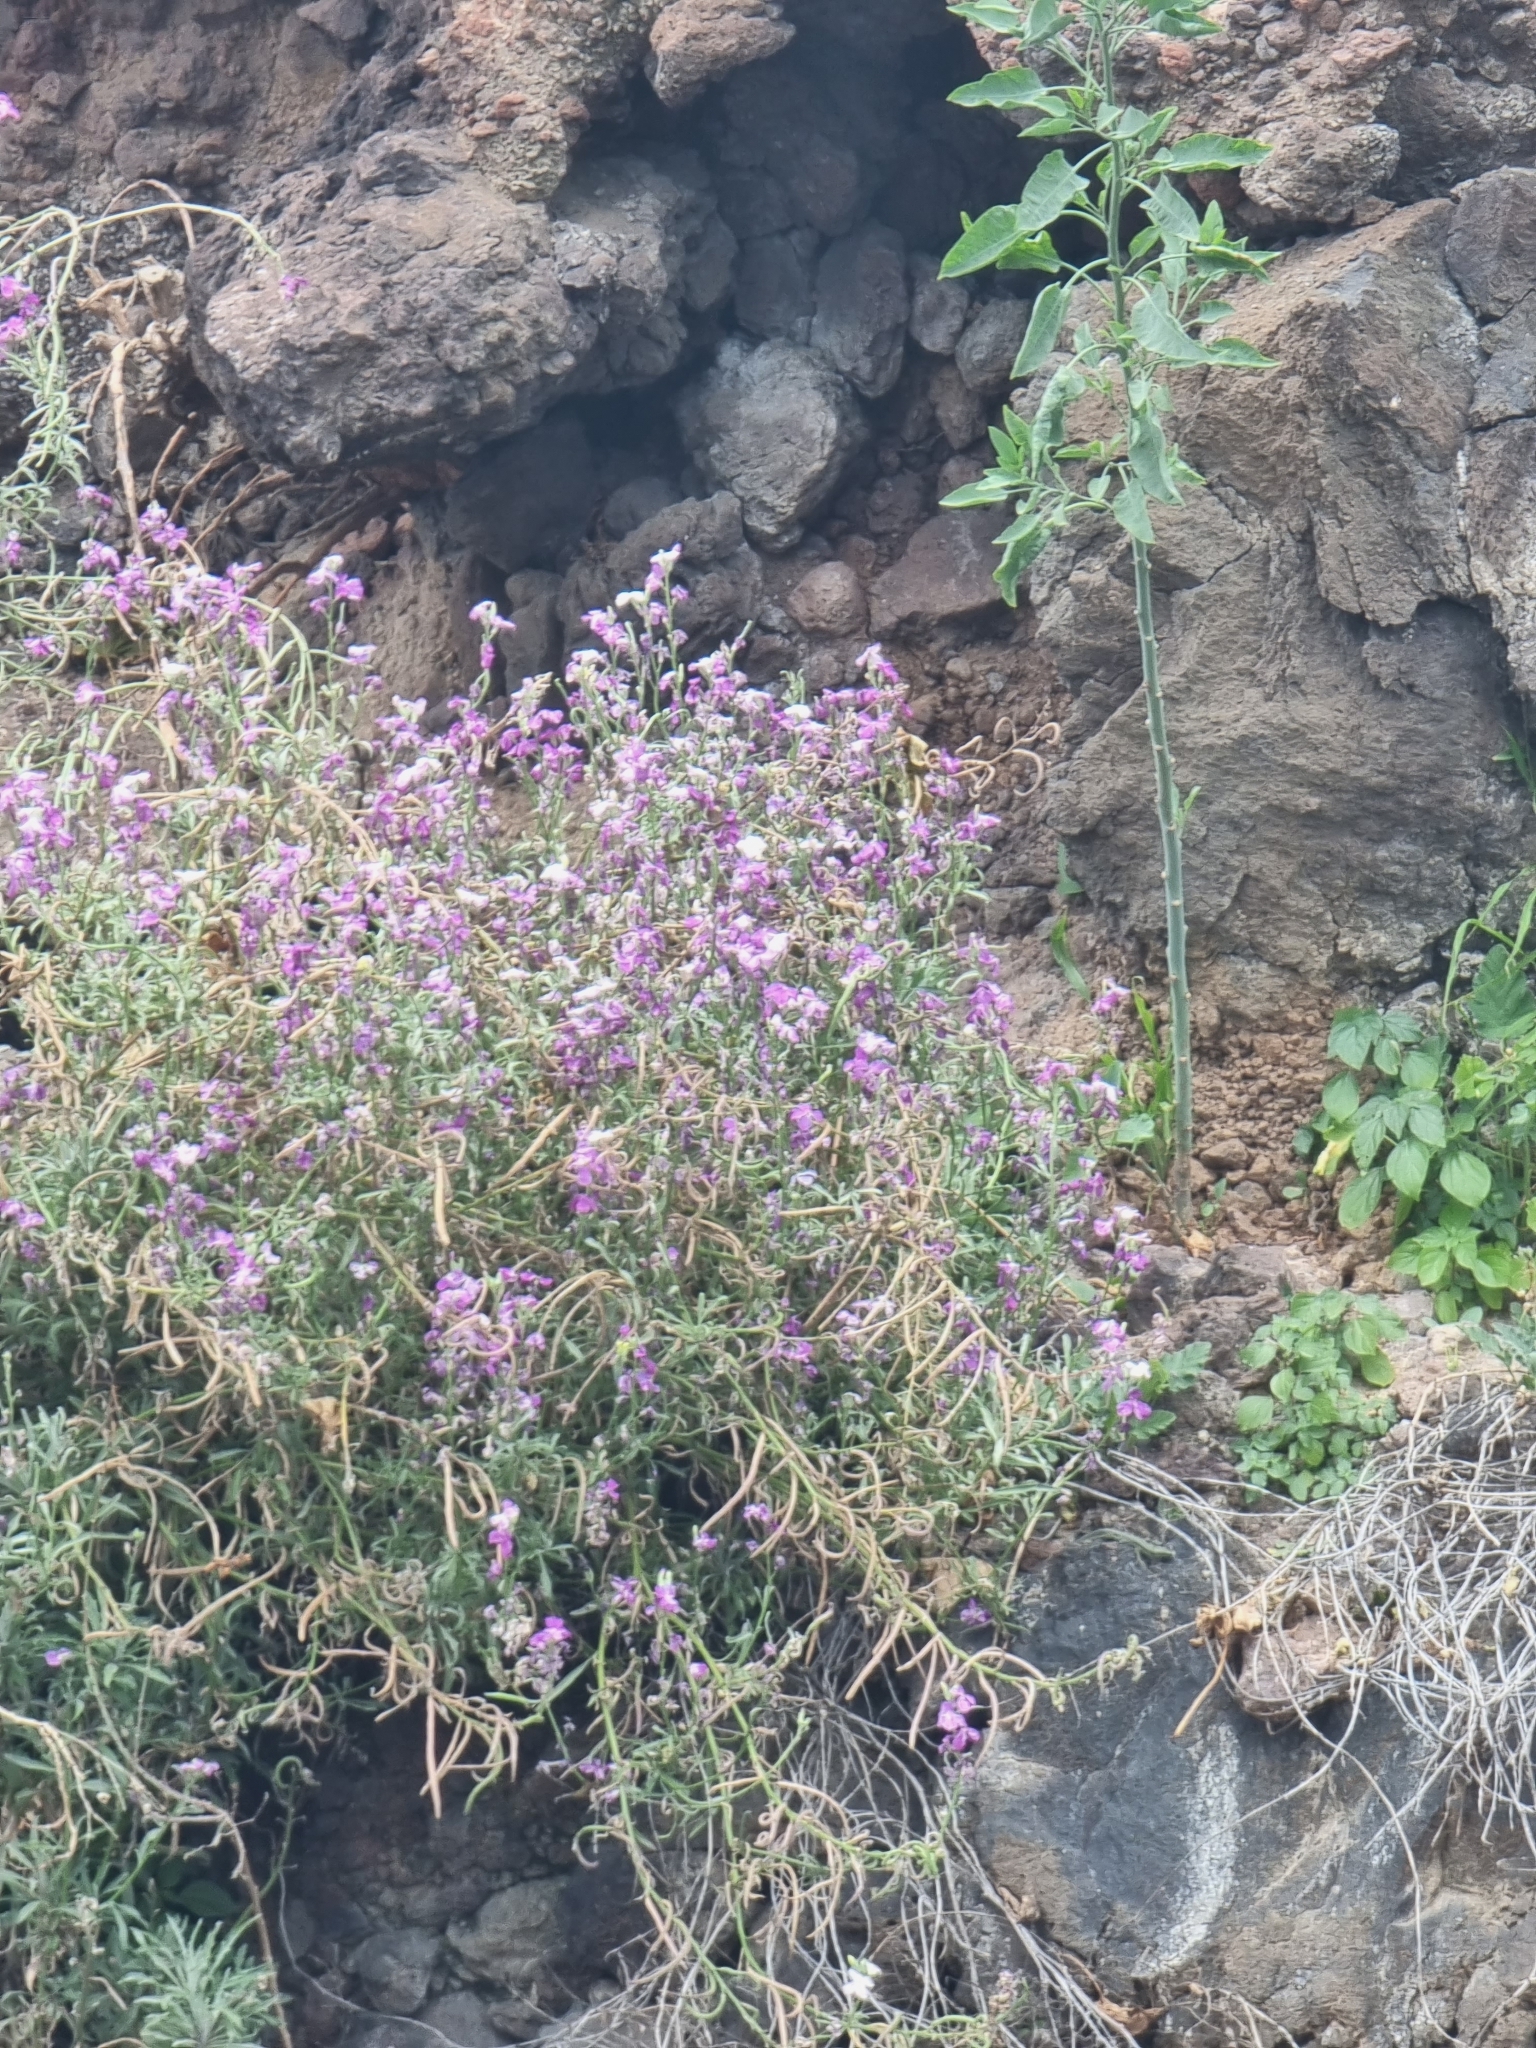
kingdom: Plantae
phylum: Tracheophyta
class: Magnoliopsida
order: Brassicales
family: Brassicaceae
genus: Matthiola
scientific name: Matthiola maderensis
